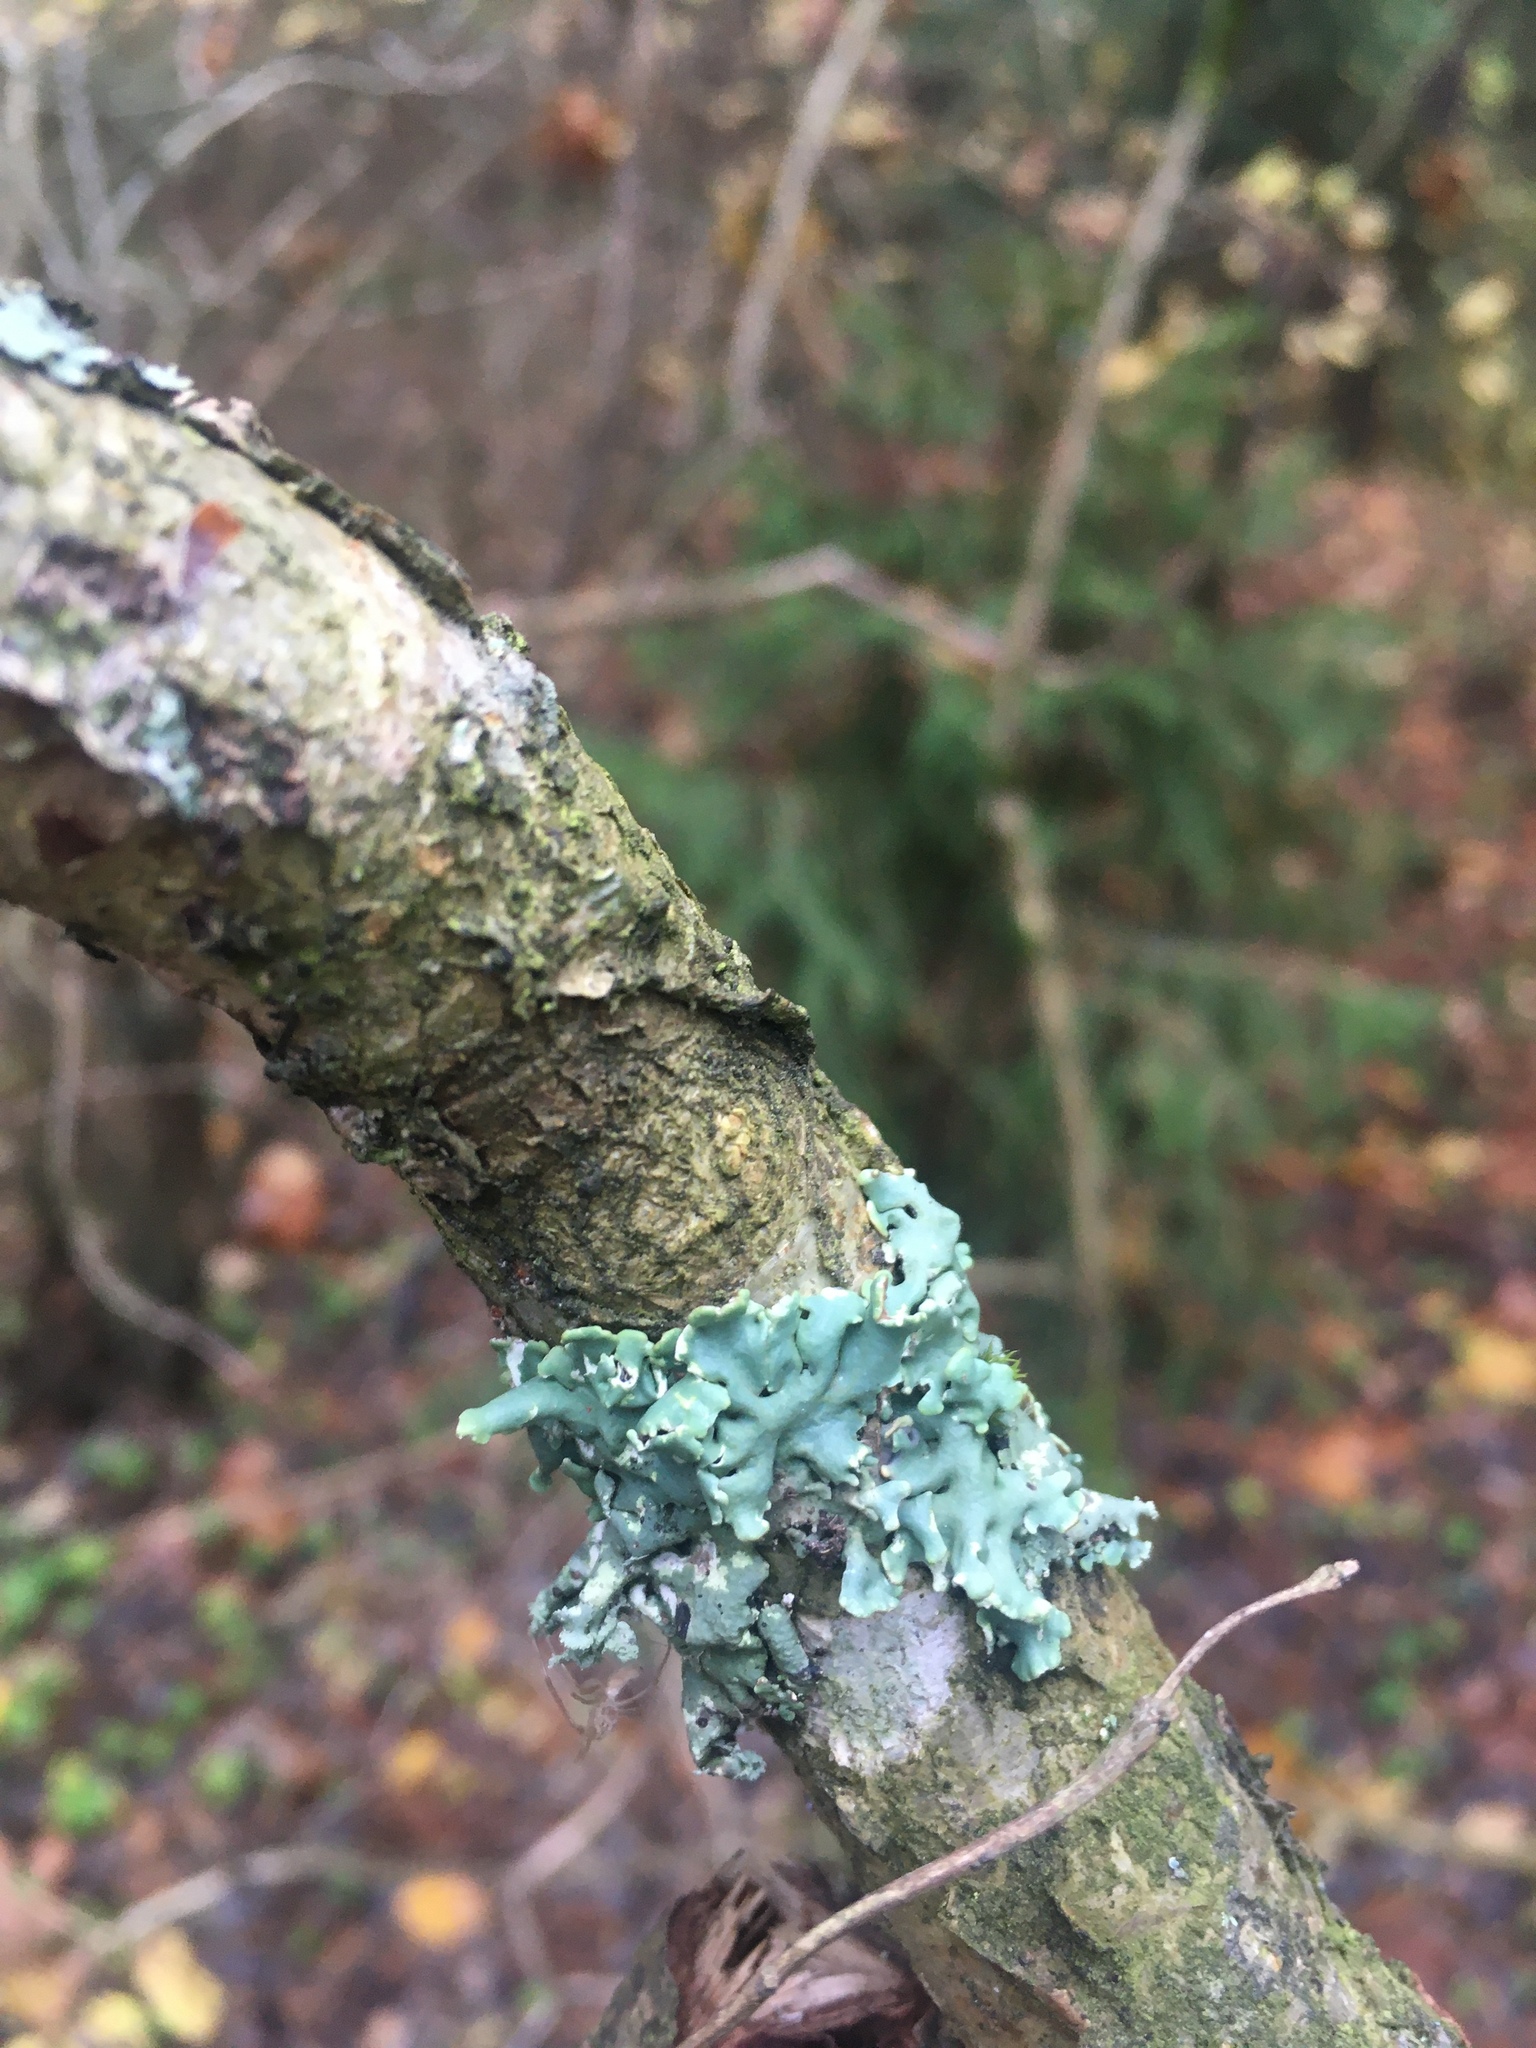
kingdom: Fungi
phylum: Ascomycota
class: Lecanoromycetes
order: Lecanorales
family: Parmeliaceae
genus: Hypogymnia
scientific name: Hypogymnia physodes
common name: Dark crottle
